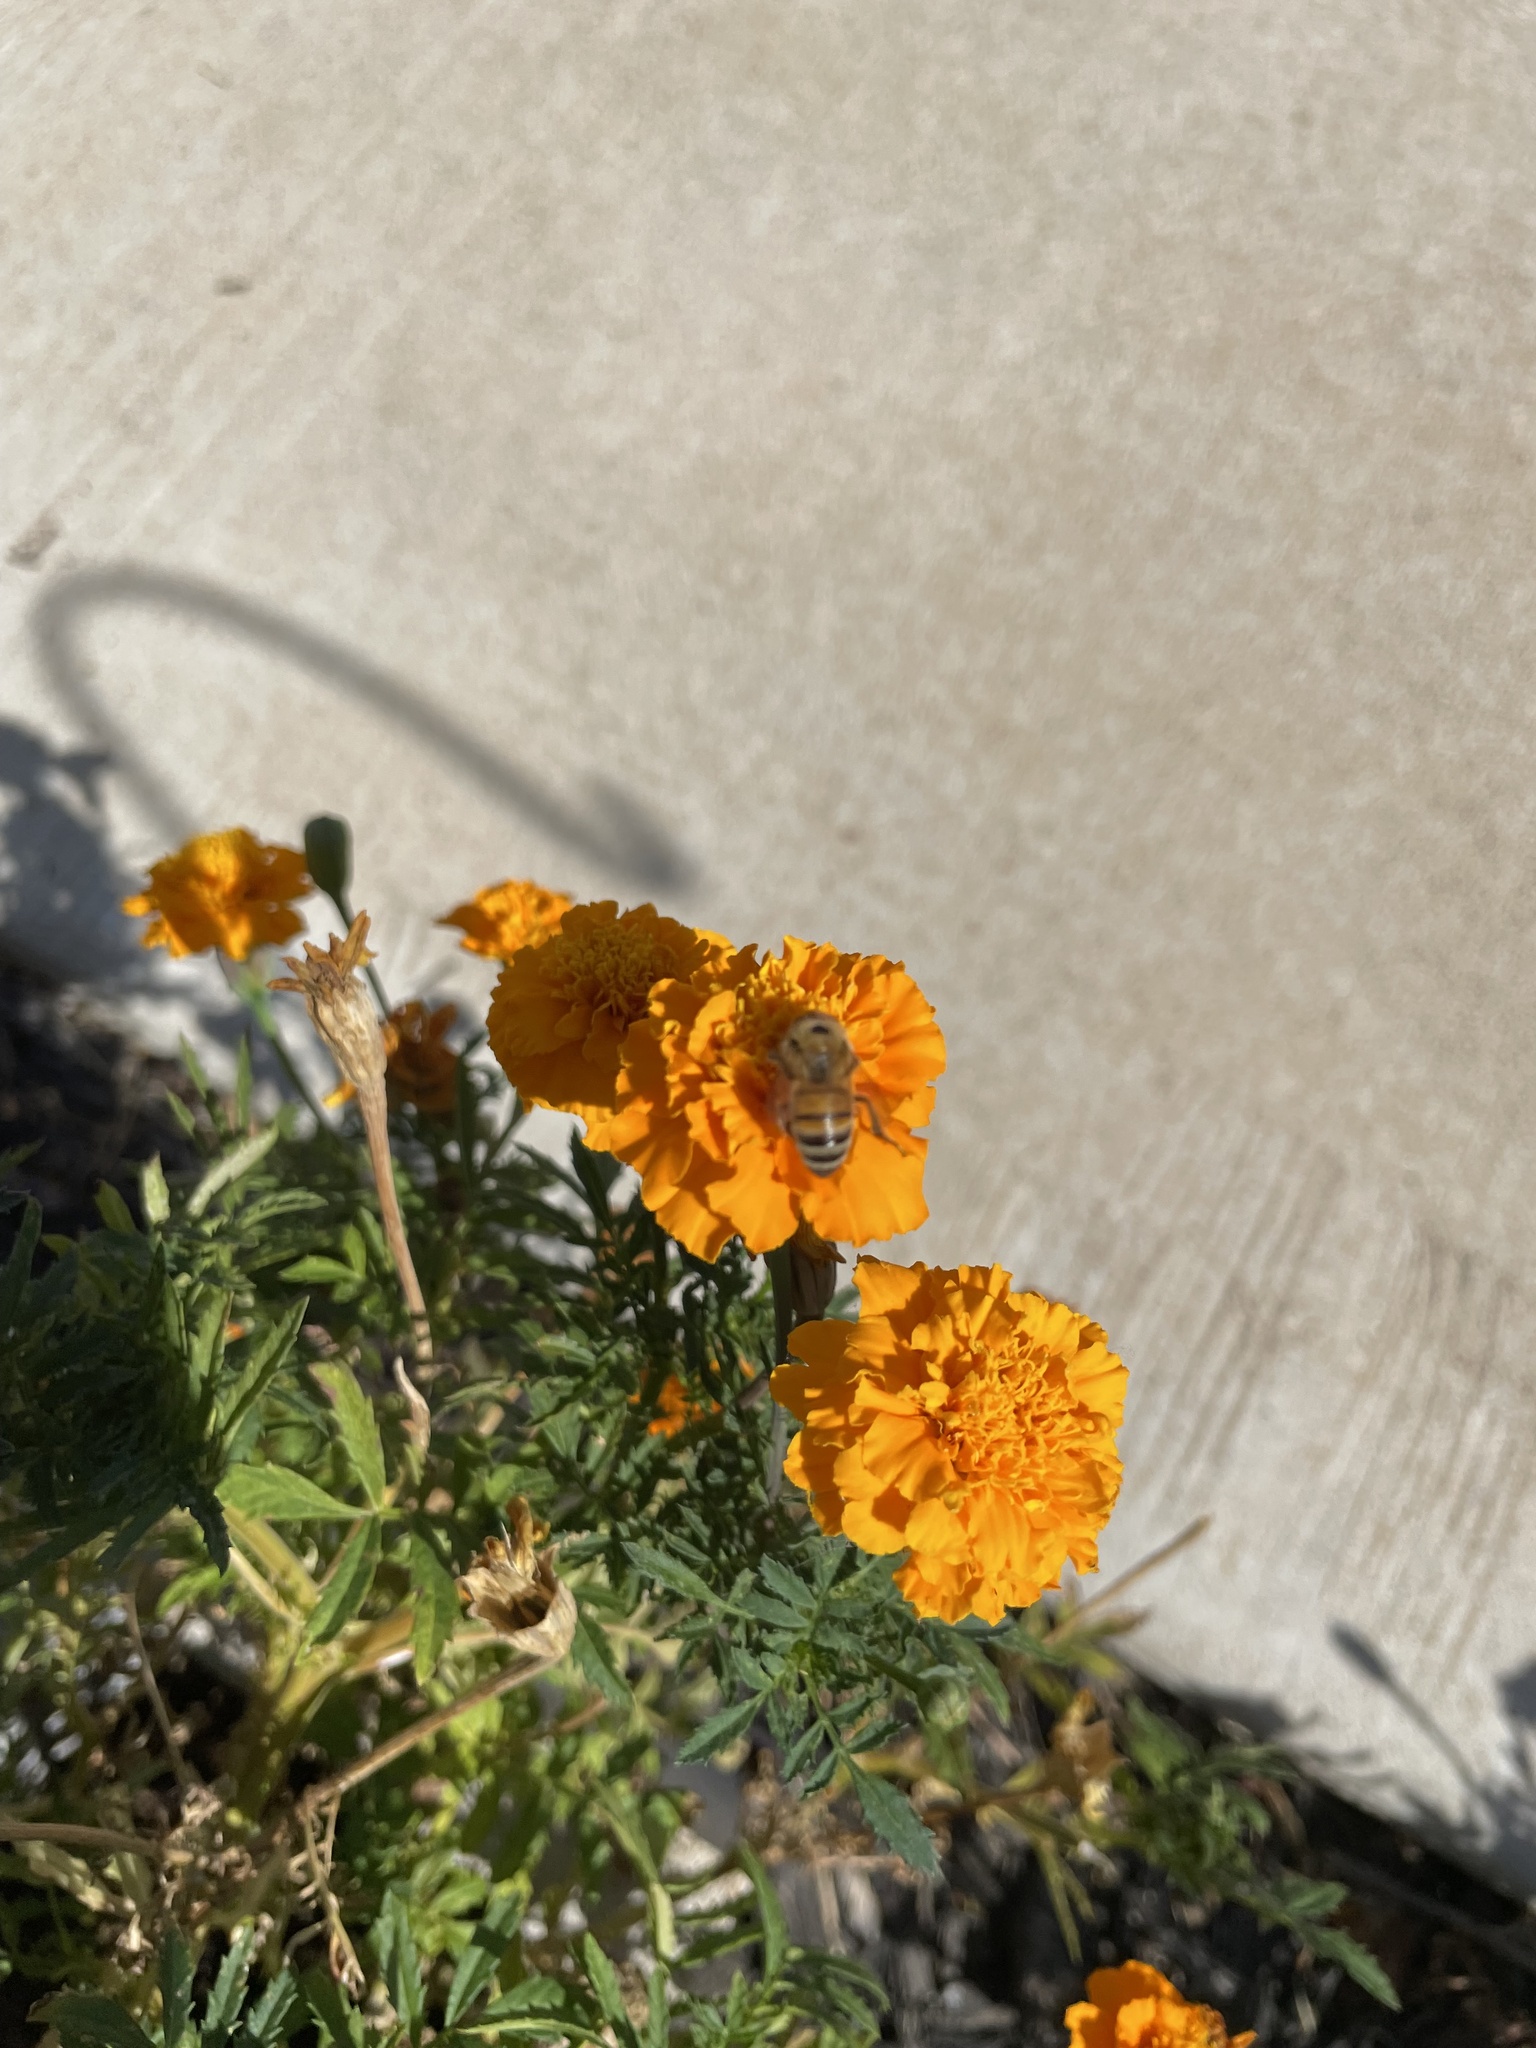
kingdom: Animalia
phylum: Arthropoda
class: Insecta
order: Hymenoptera
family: Apidae
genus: Apis
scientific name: Apis mellifera
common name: Honey bee
